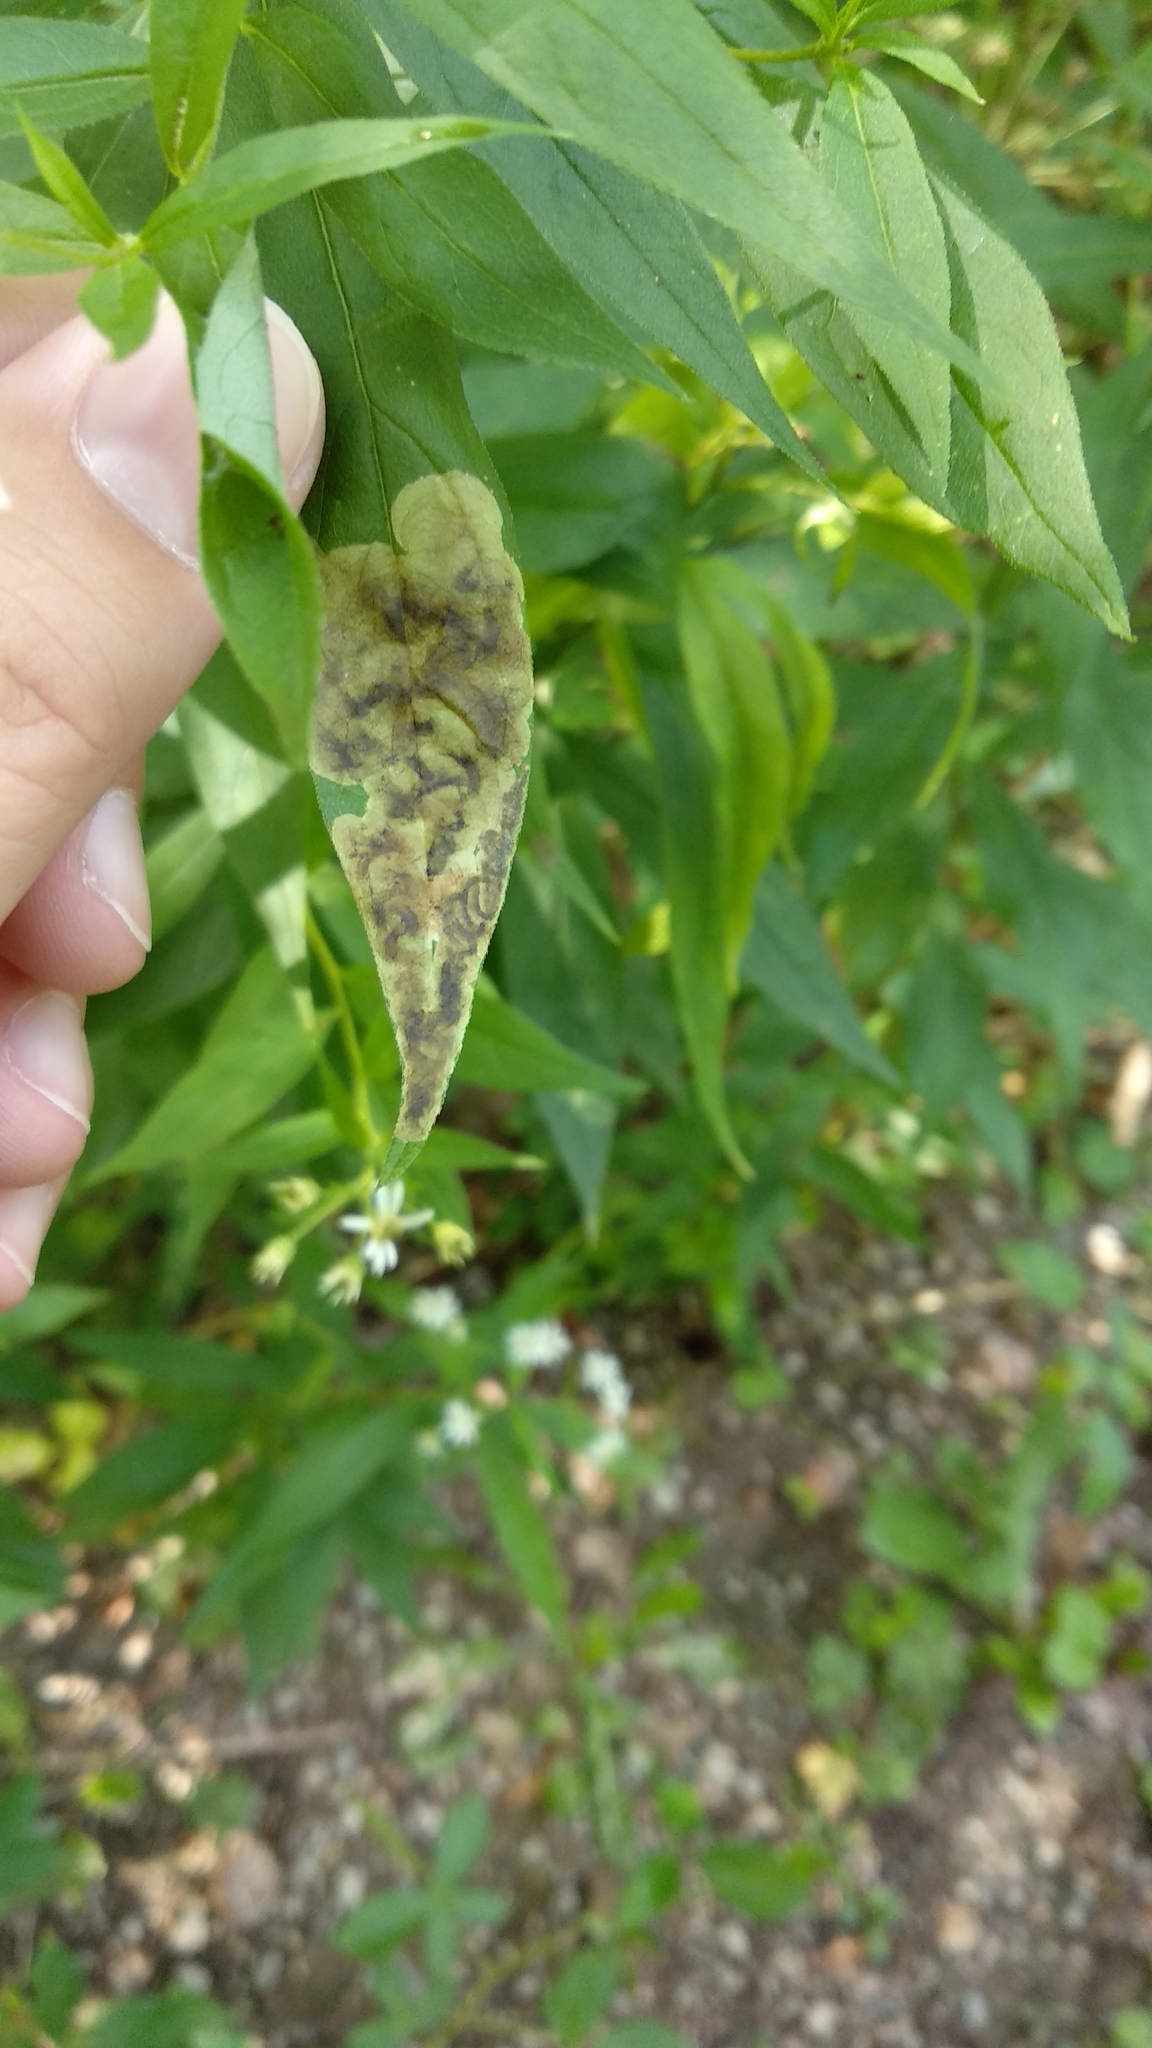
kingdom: Animalia
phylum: Arthropoda
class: Insecta
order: Diptera
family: Agromyzidae
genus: Nemorimyza
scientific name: Nemorimyza posticata
